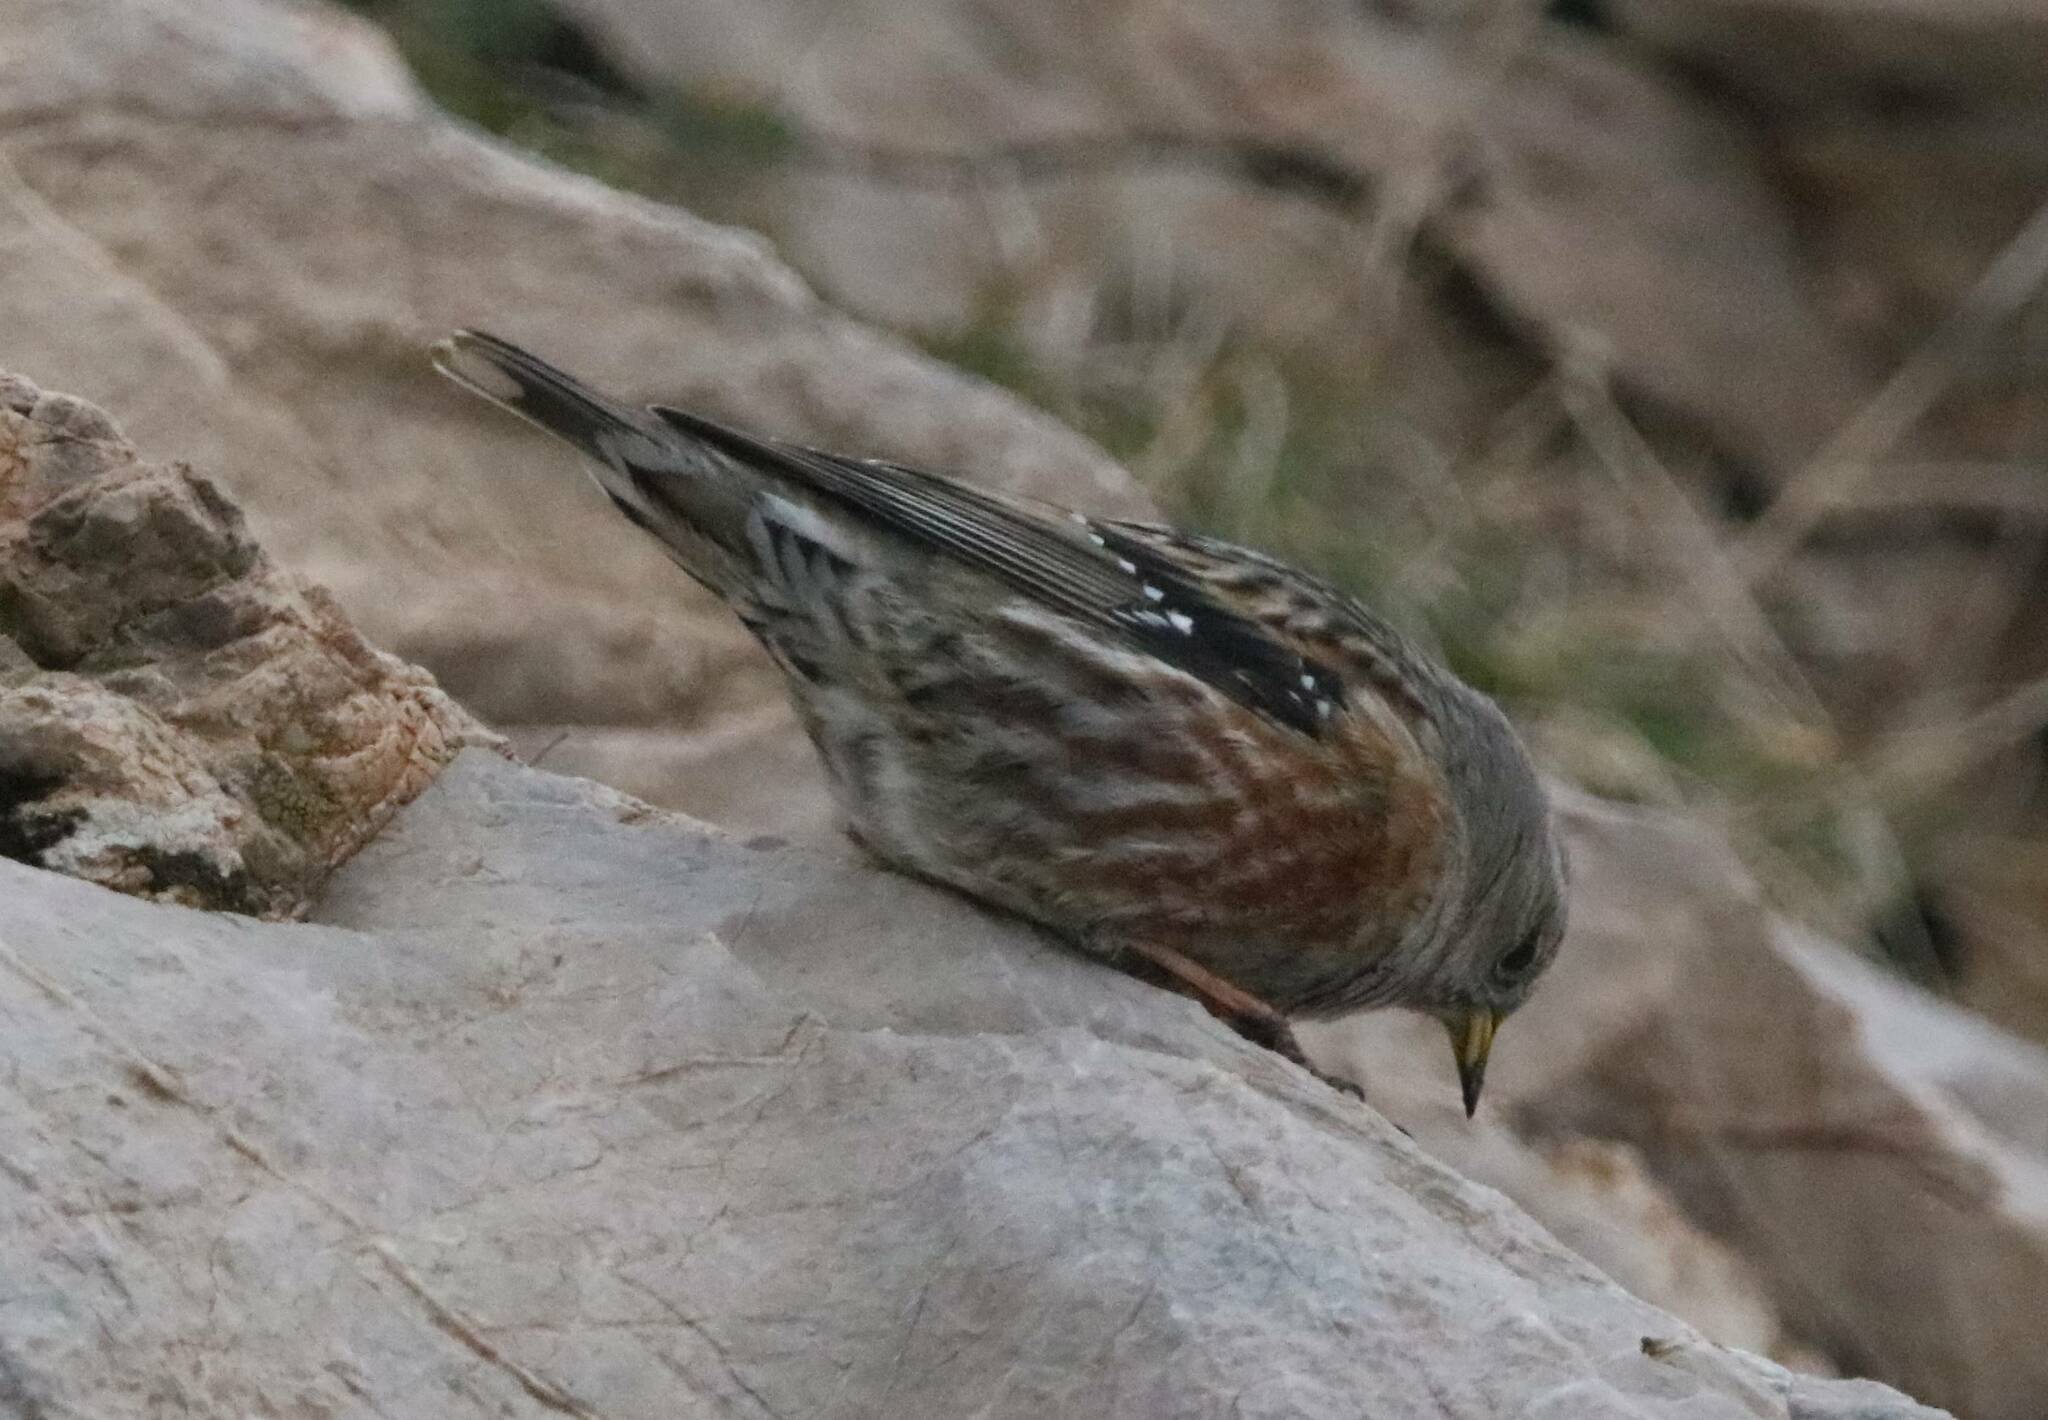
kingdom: Animalia
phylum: Chordata
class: Aves
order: Passeriformes
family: Prunellidae
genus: Prunella
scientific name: Prunella collaris
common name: Alpine accentor
